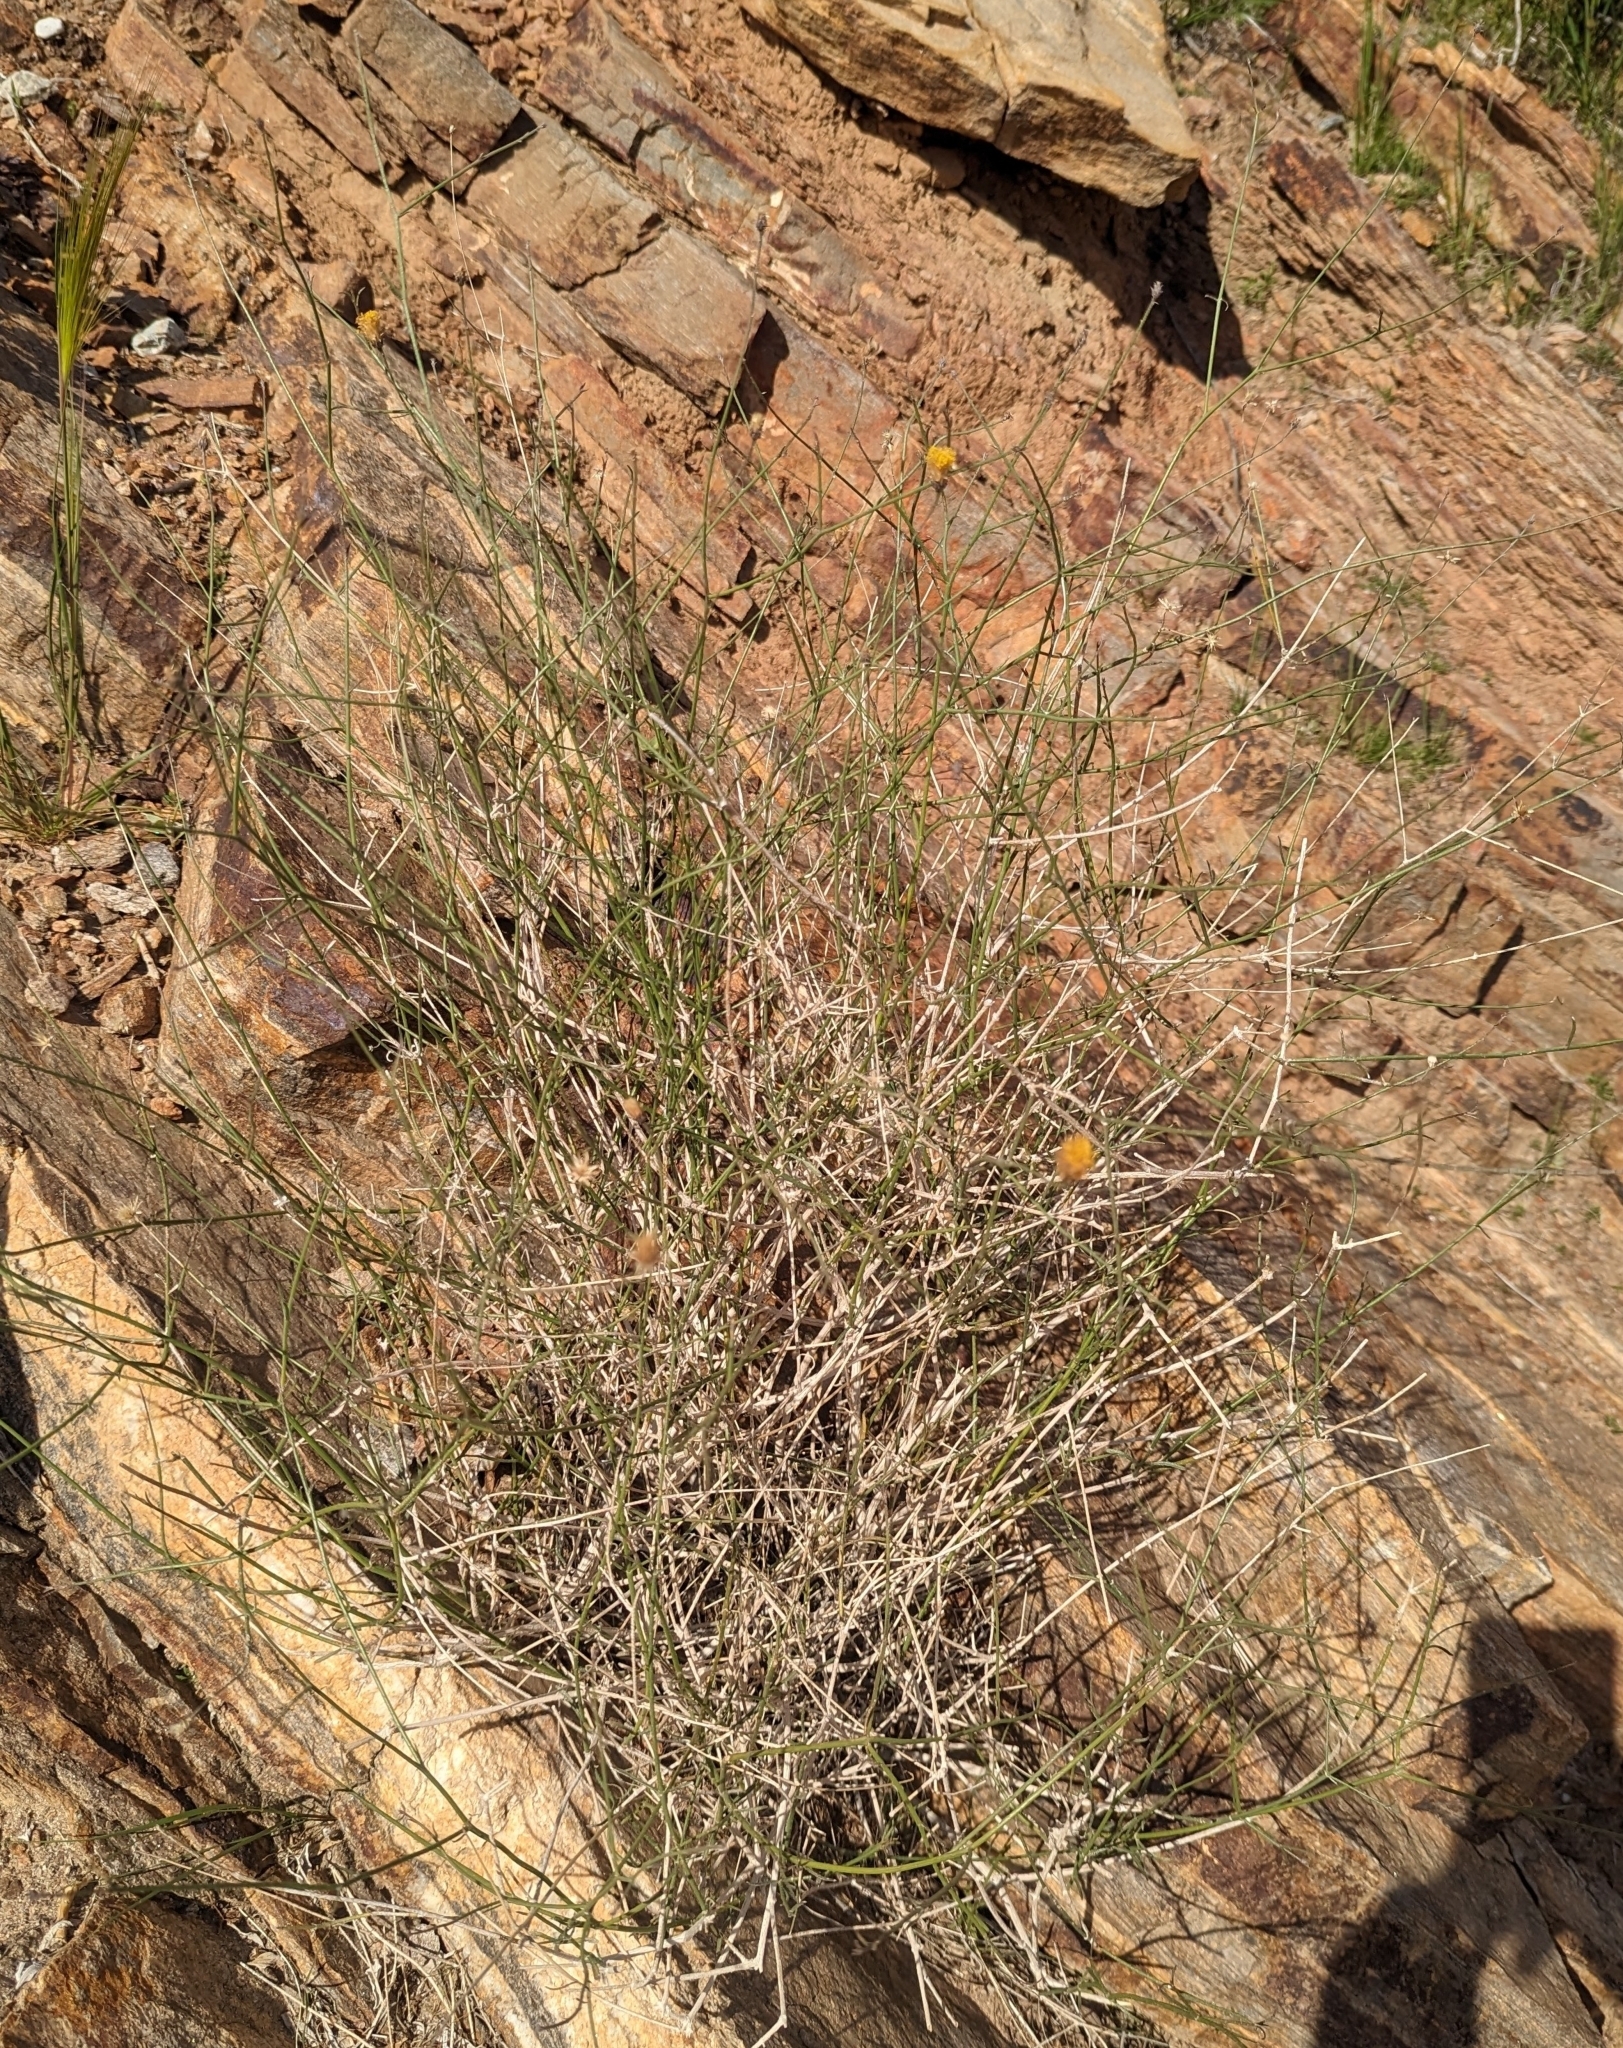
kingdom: Plantae
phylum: Tracheophyta
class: Magnoliopsida
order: Asterales
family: Asteraceae
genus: Bebbia
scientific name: Bebbia juncea
